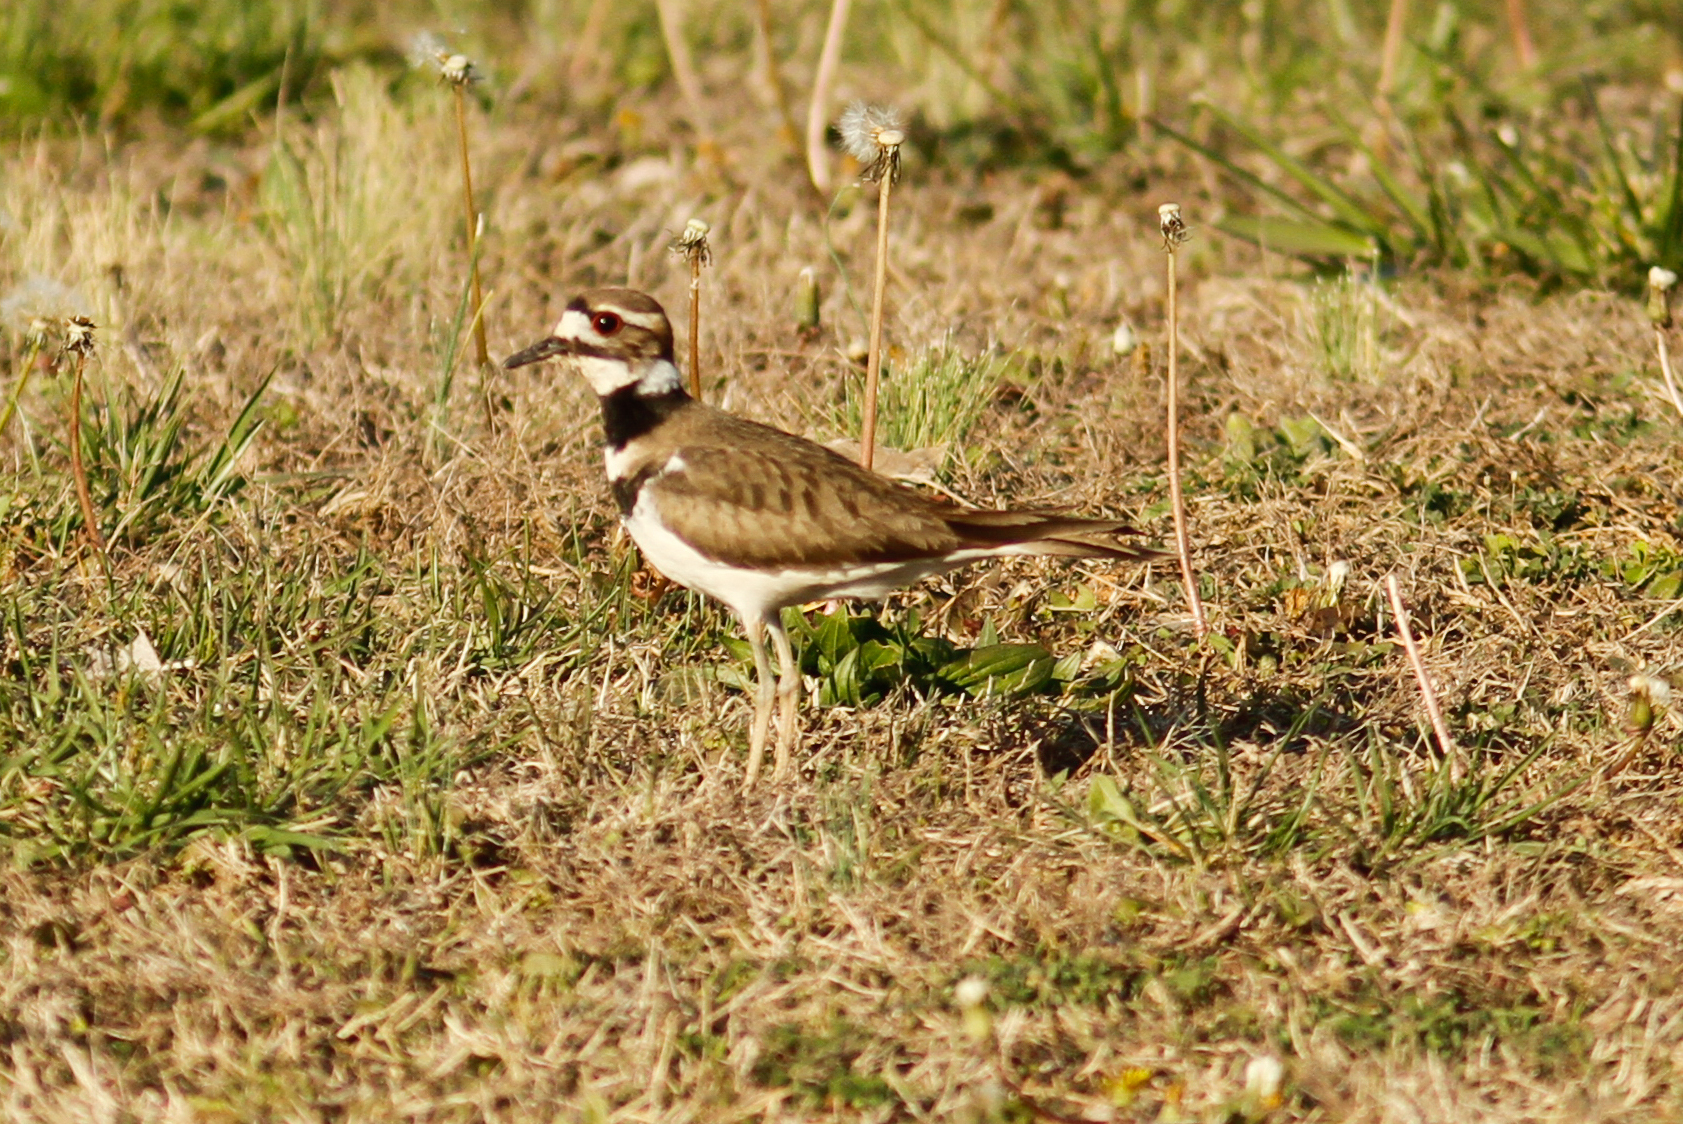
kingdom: Animalia
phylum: Chordata
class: Aves
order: Charadriiformes
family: Charadriidae
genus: Charadrius
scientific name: Charadrius vociferus
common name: Killdeer
